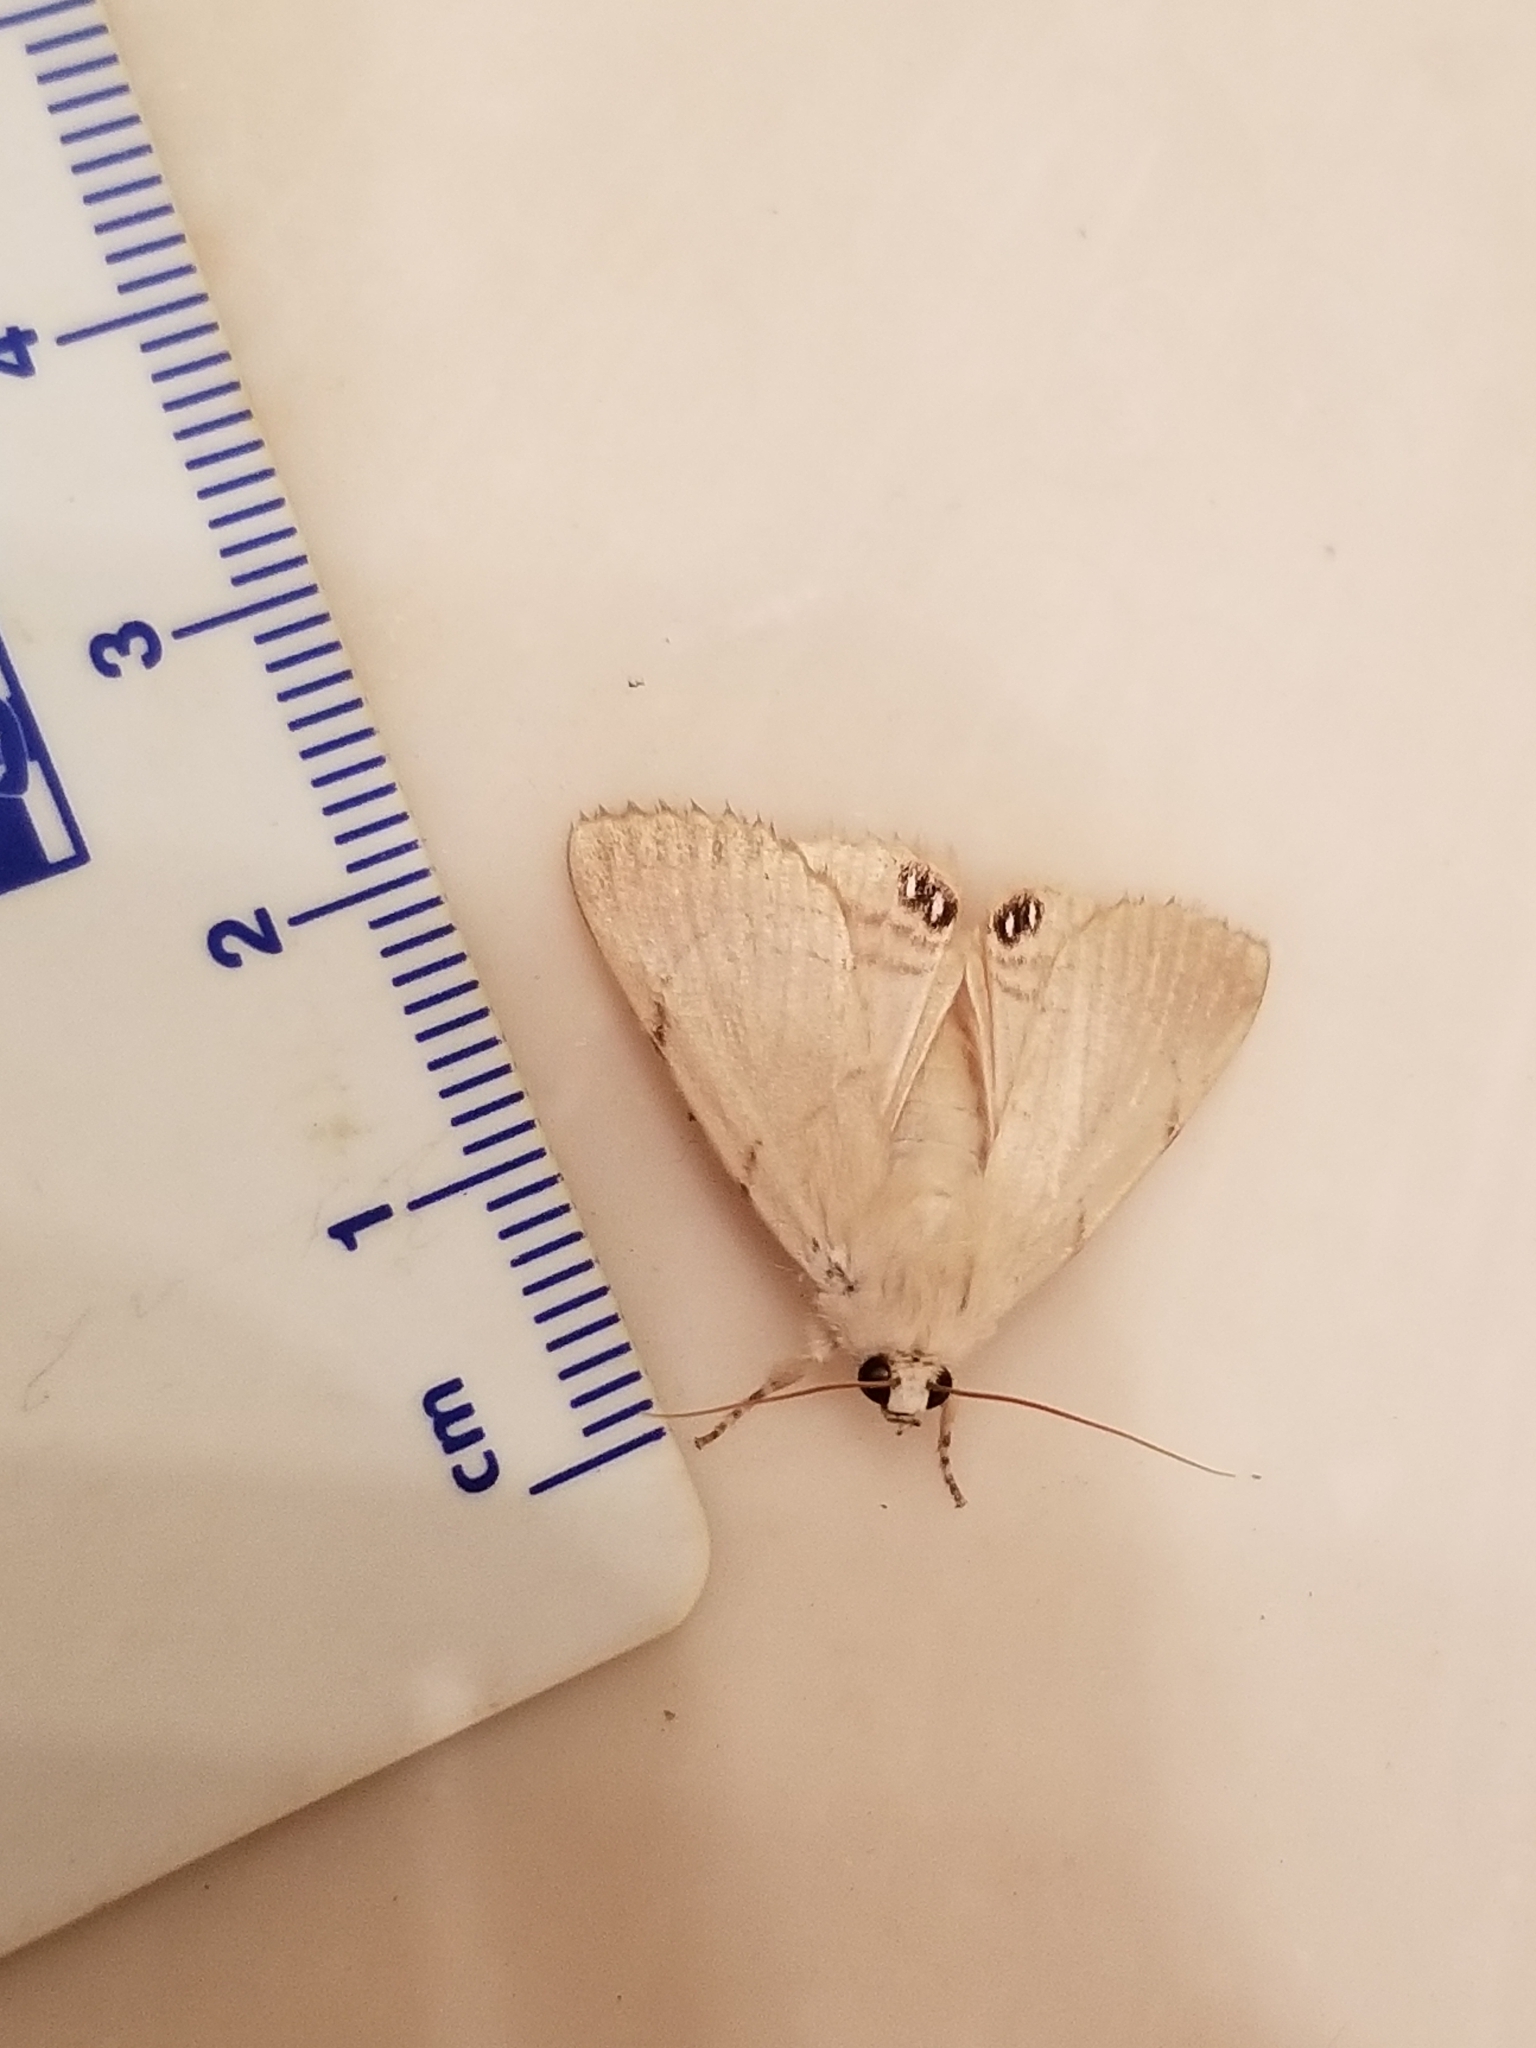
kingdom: Animalia
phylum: Arthropoda
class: Insecta
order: Lepidoptera
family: Erebidae
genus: Litoprosopus
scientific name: Litoprosopus coachella
